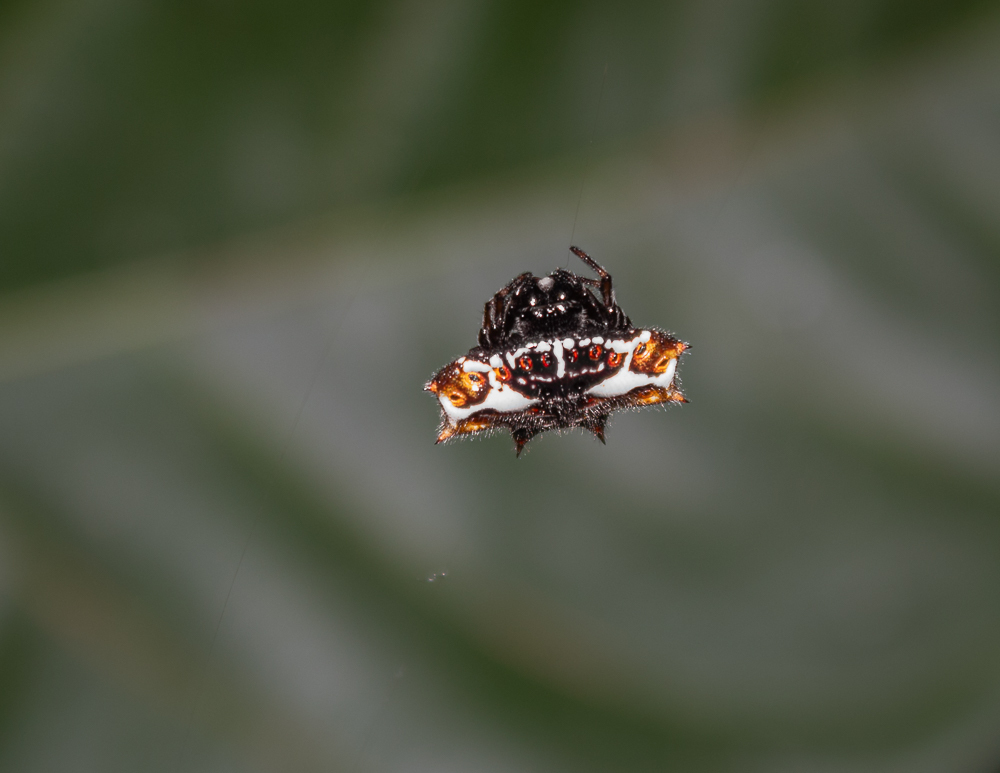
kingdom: Animalia
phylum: Arthropoda
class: Arachnida
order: Araneae
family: Araneidae
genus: Gasteracantha
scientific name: Gasteracantha cancriformis
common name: Orb weavers
